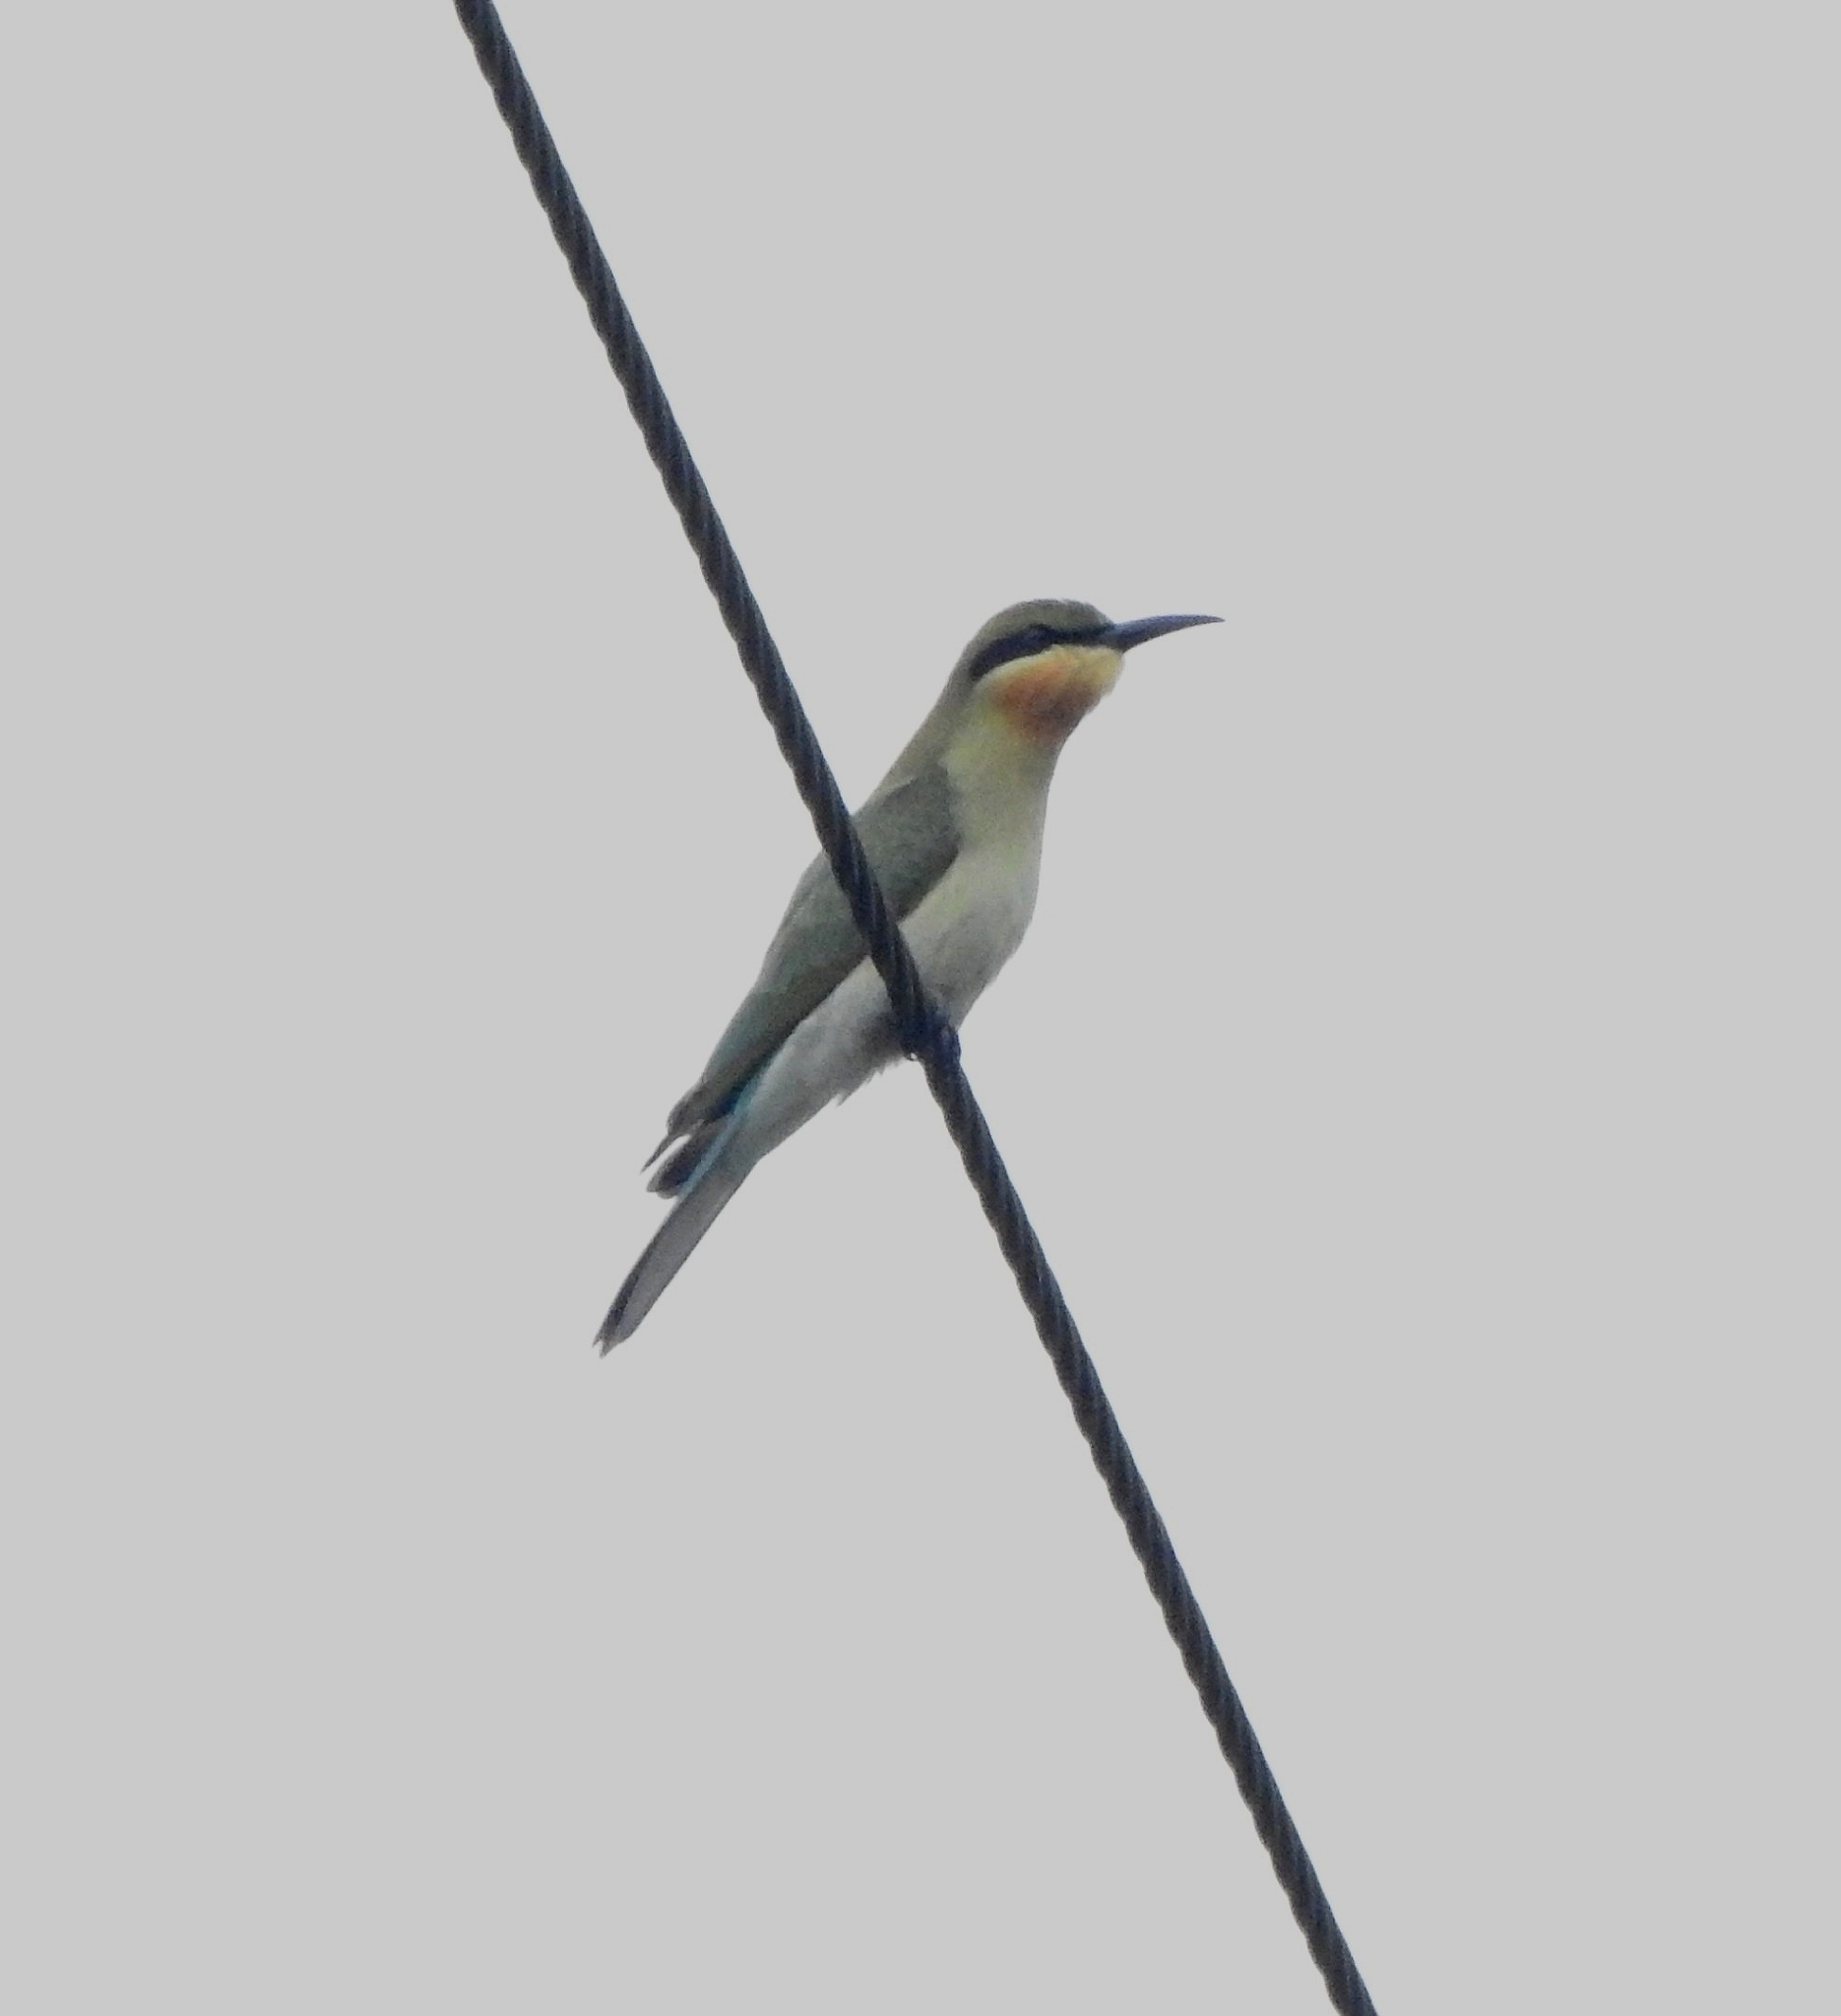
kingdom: Animalia
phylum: Chordata
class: Aves
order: Coraciiformes
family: Meropidae
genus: Merops
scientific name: Merops philippinus
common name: Blue-tailed bee-eater
